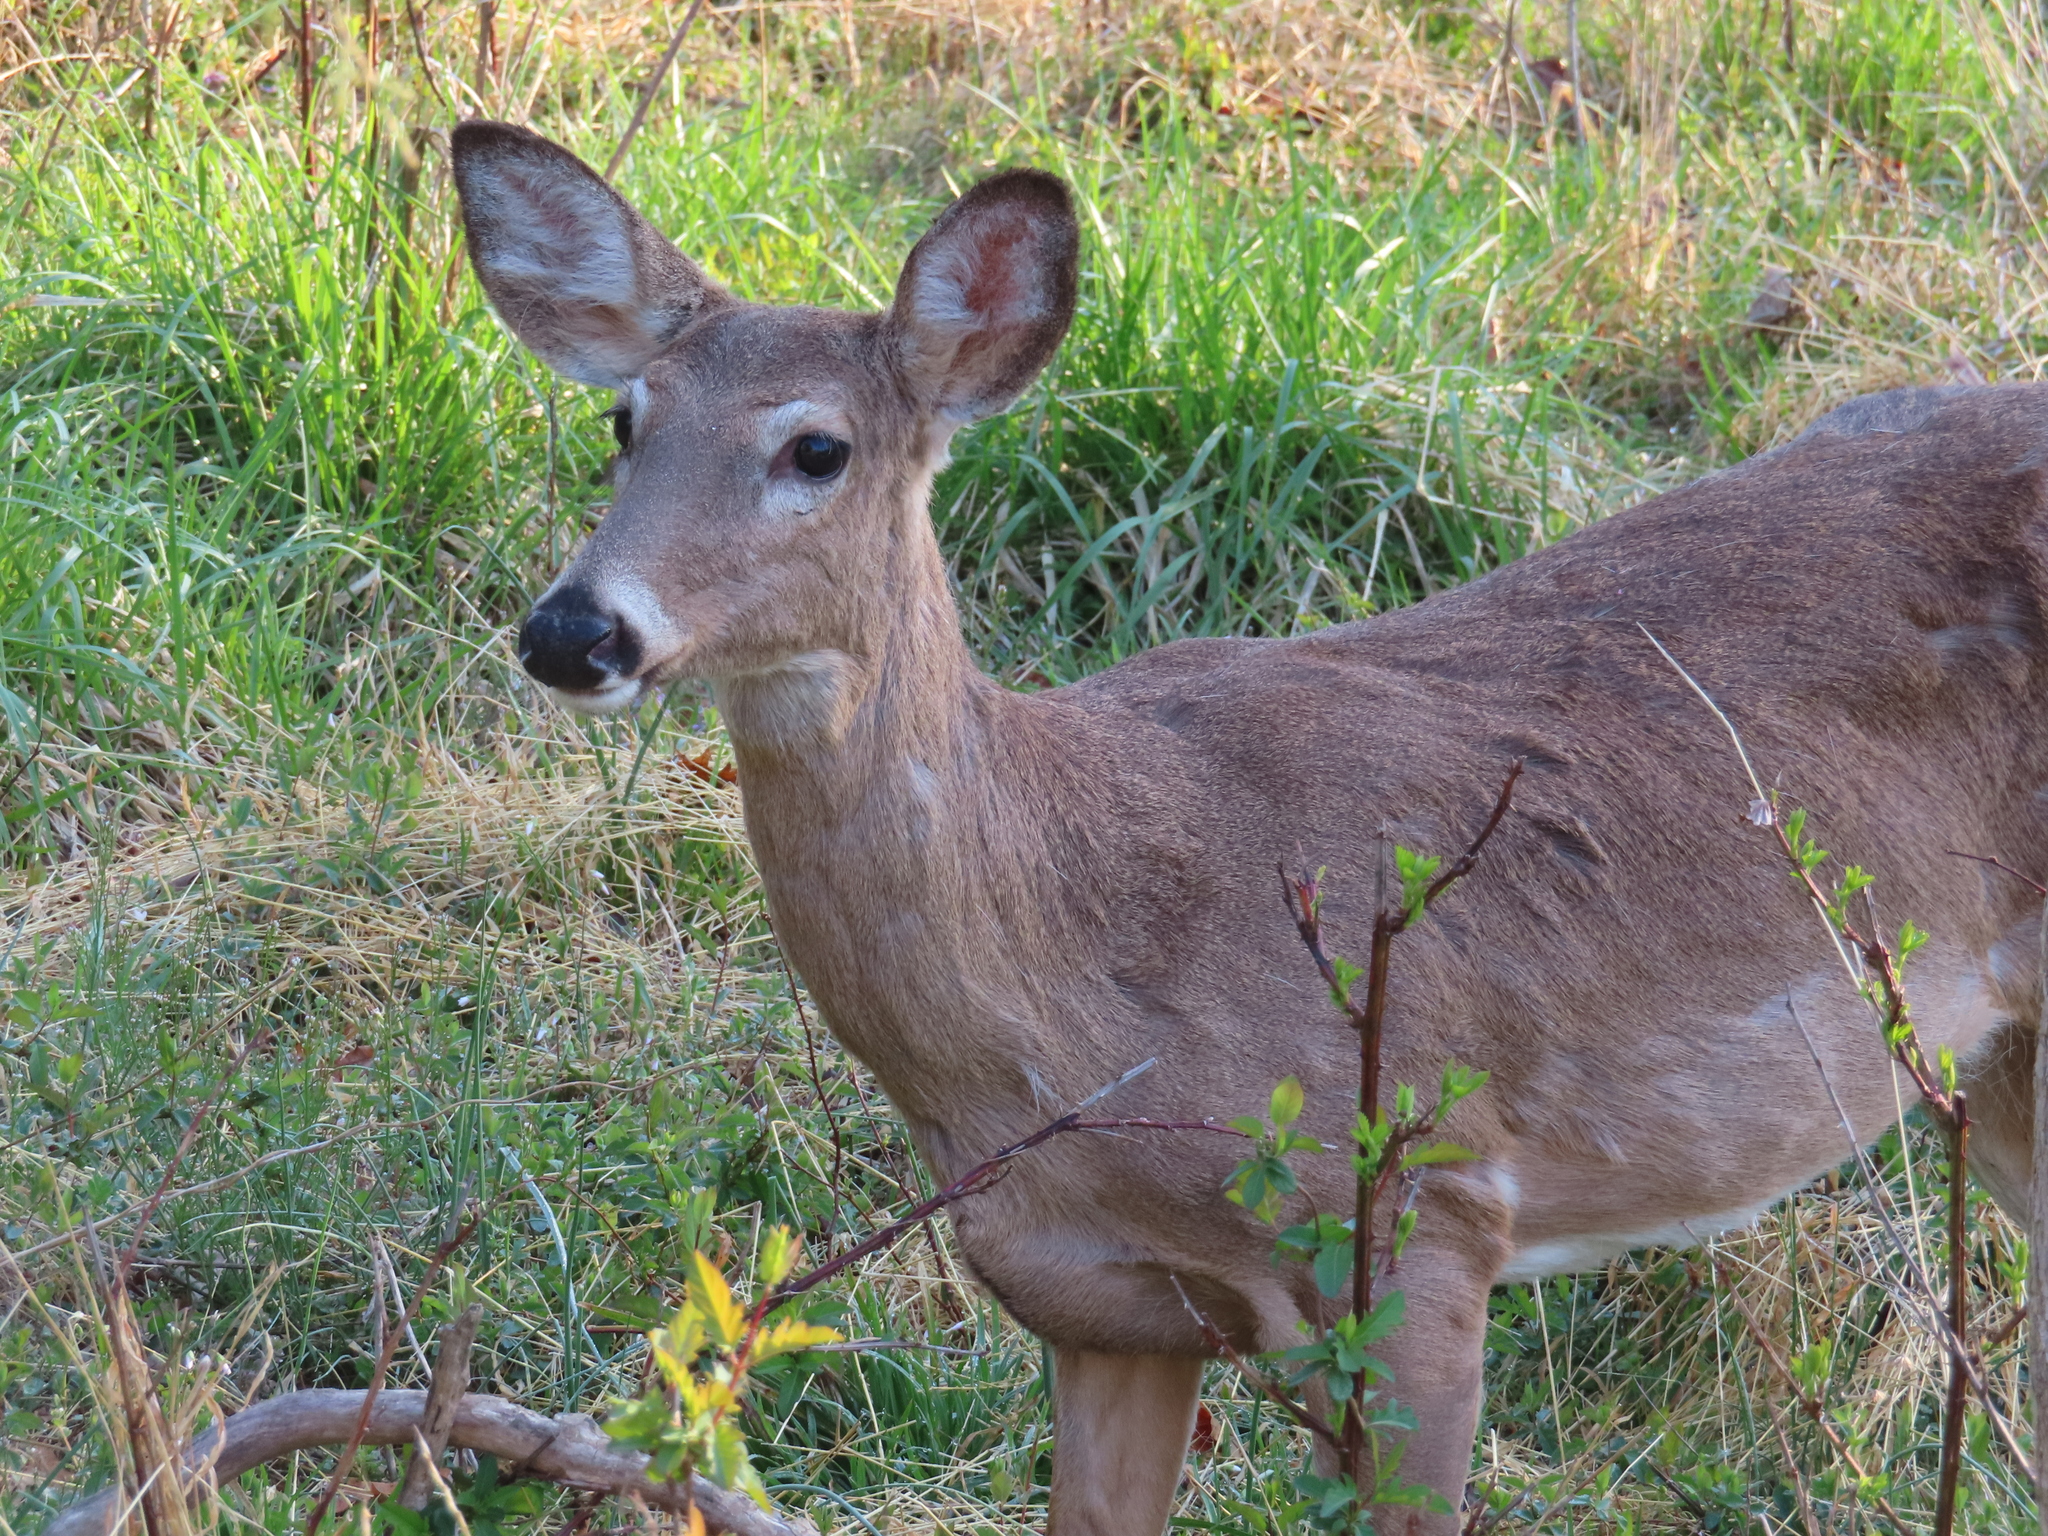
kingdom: Animalia
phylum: Chordata
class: Mammalia
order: Artiodactyla
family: Cervidae
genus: Odocoileus
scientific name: Odocoileus virginianus
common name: White-tailed deer
